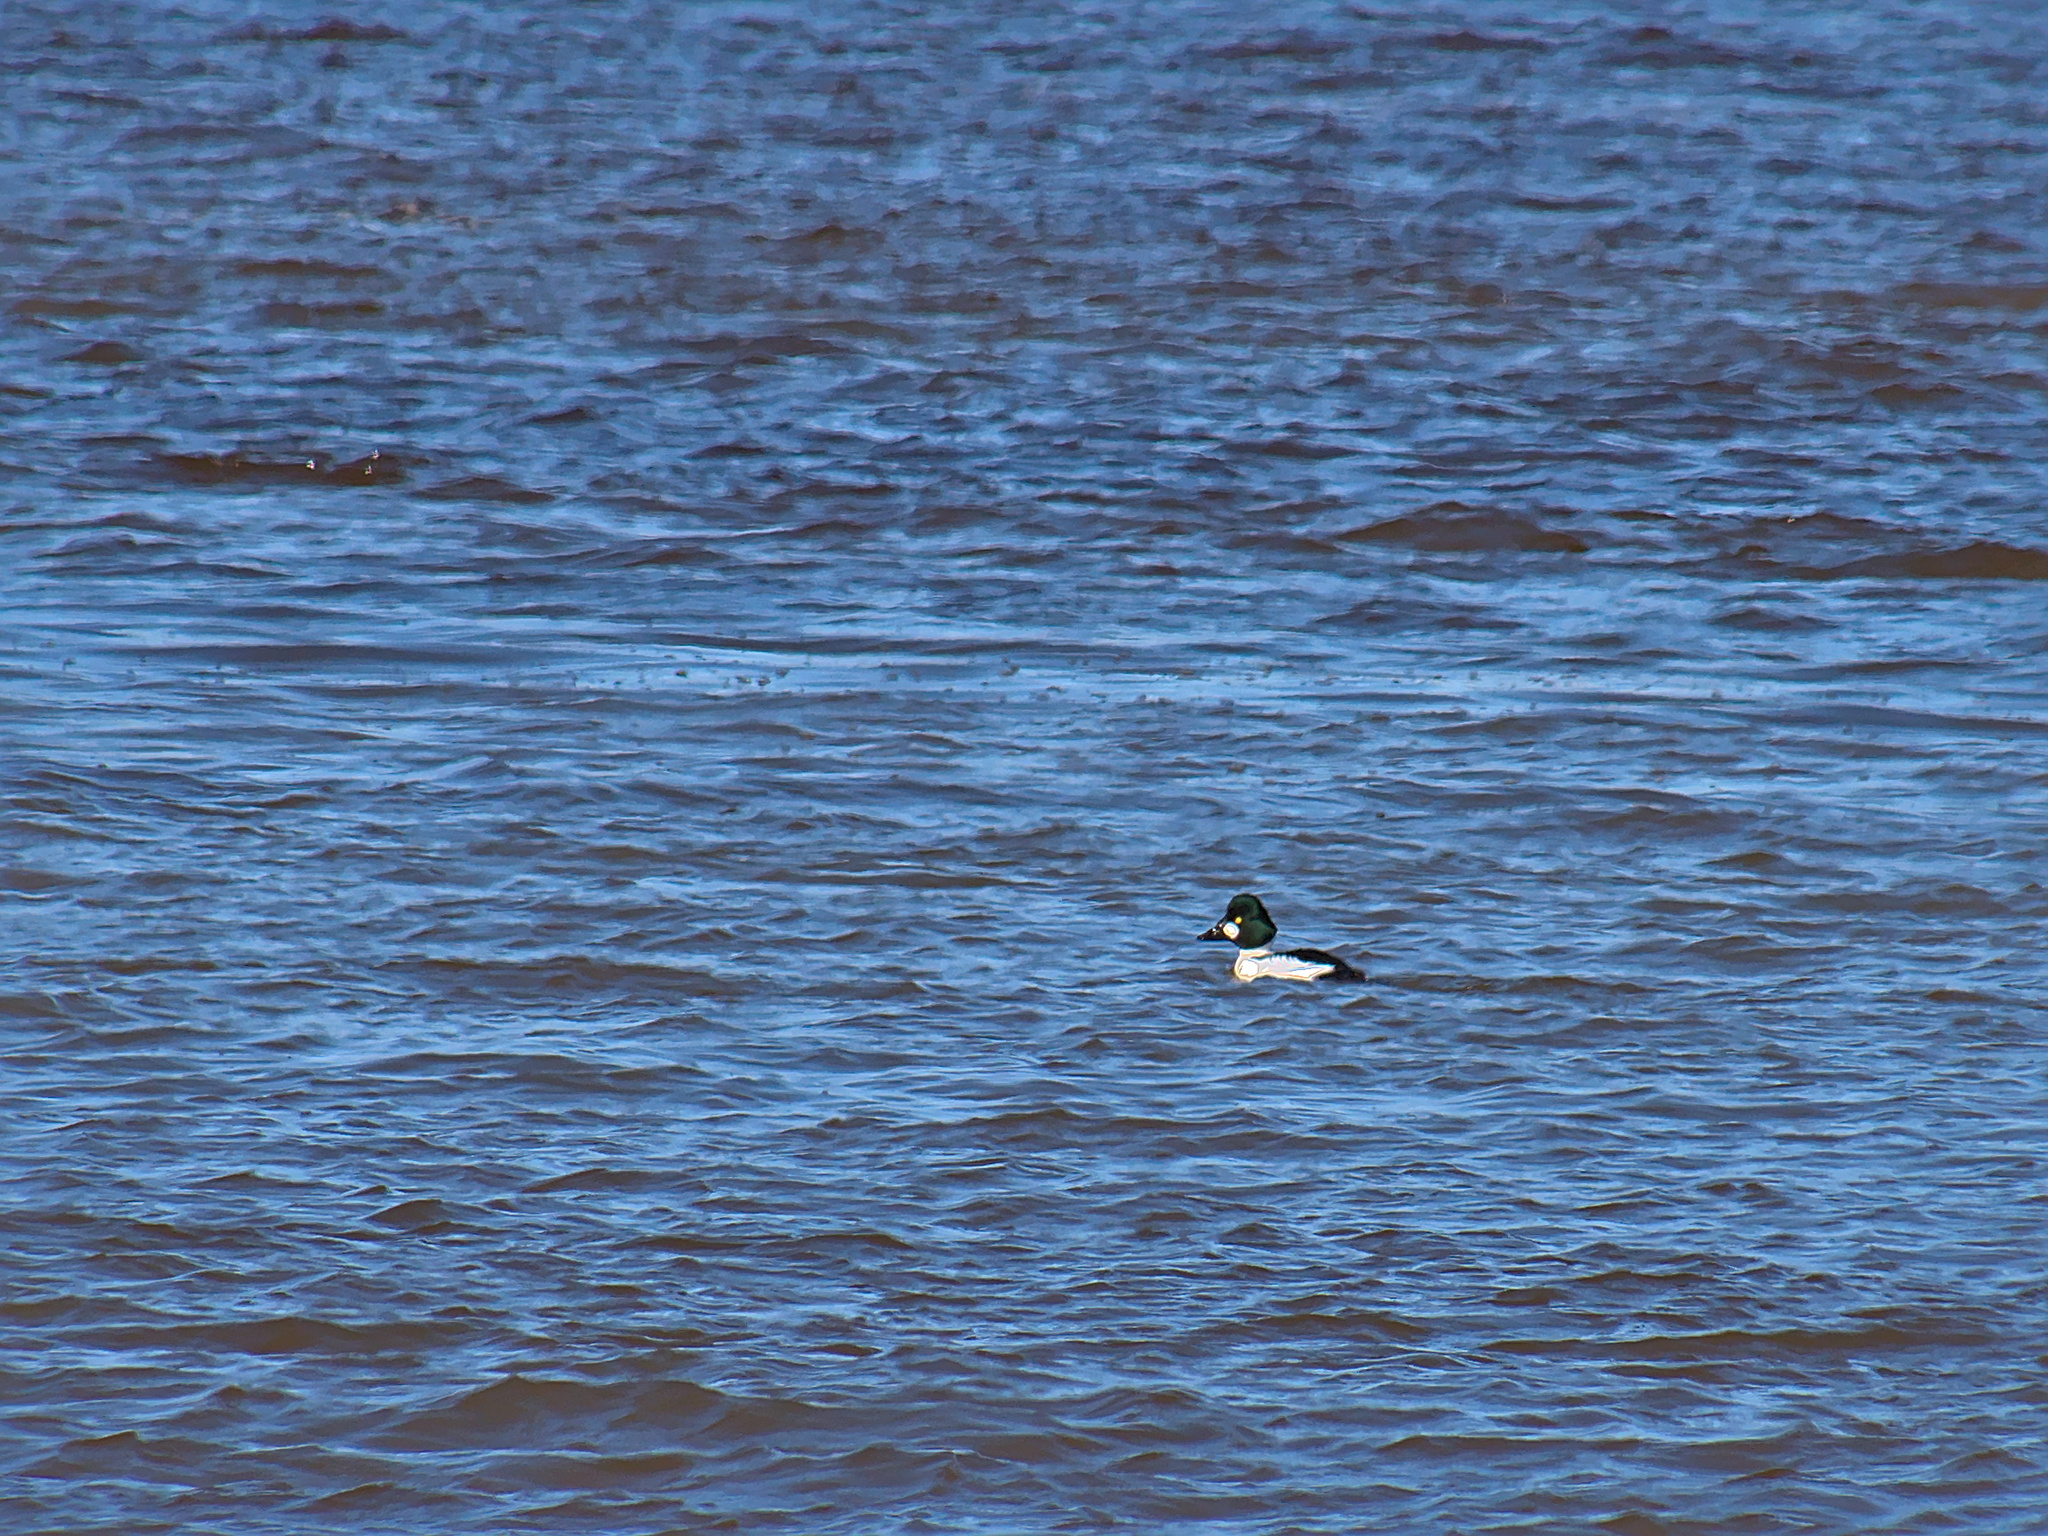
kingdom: Animalia
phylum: Chordata
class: Aves
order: Anseriformes
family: Anatidae
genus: Bucephala
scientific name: Bucephala clangula
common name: Common goldeneye
